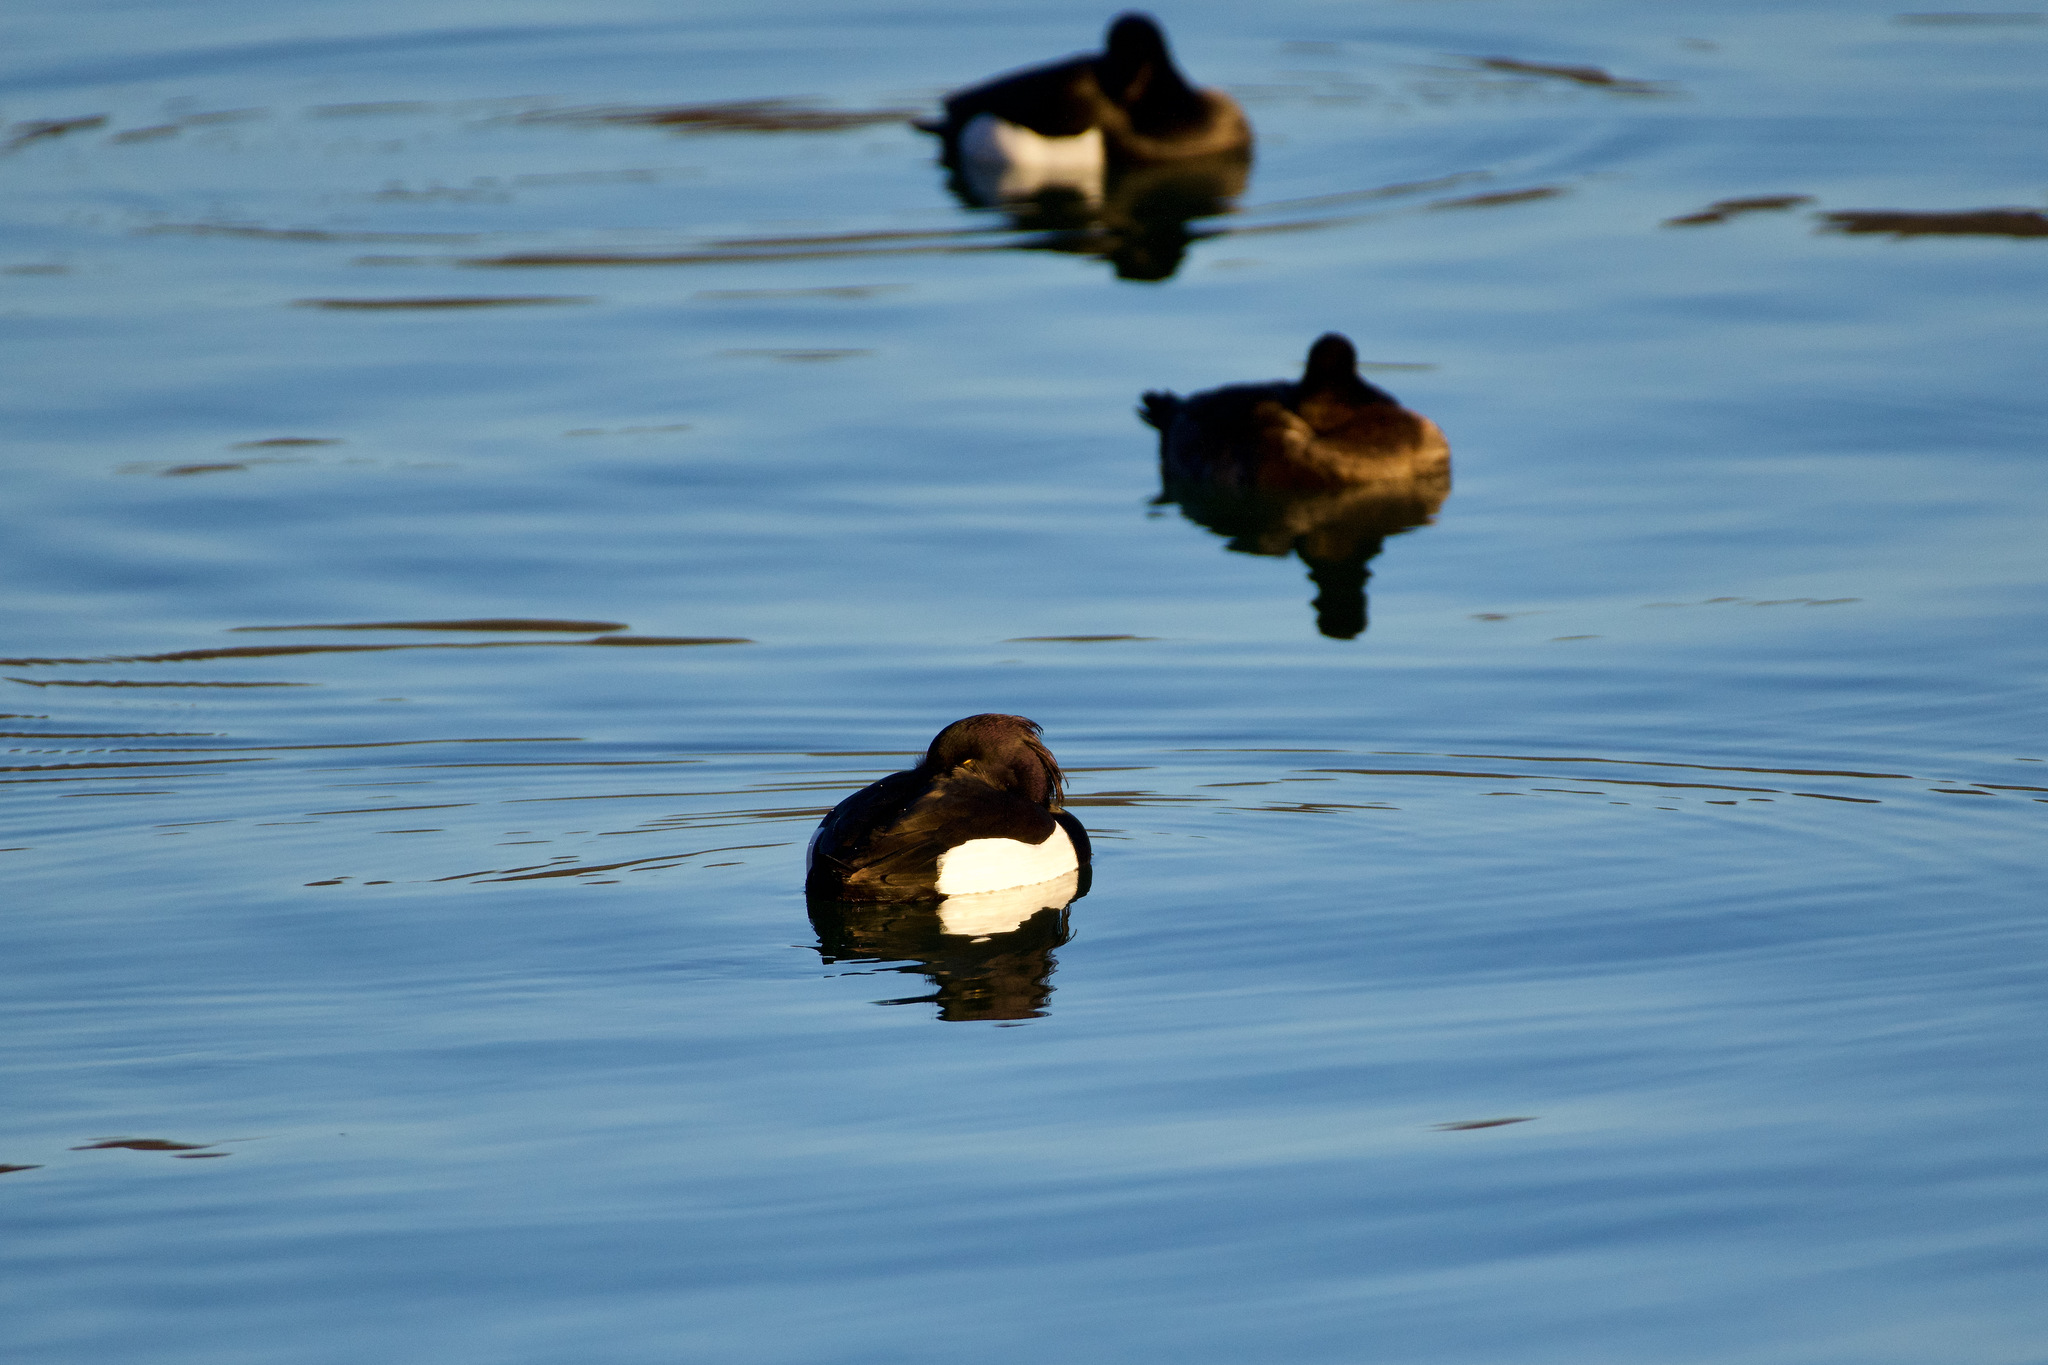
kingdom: Animalia
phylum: Chordata
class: Aves
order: Anseriformes
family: Anatidae
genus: Aythya
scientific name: Aythya fuligula
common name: Tufted duck
